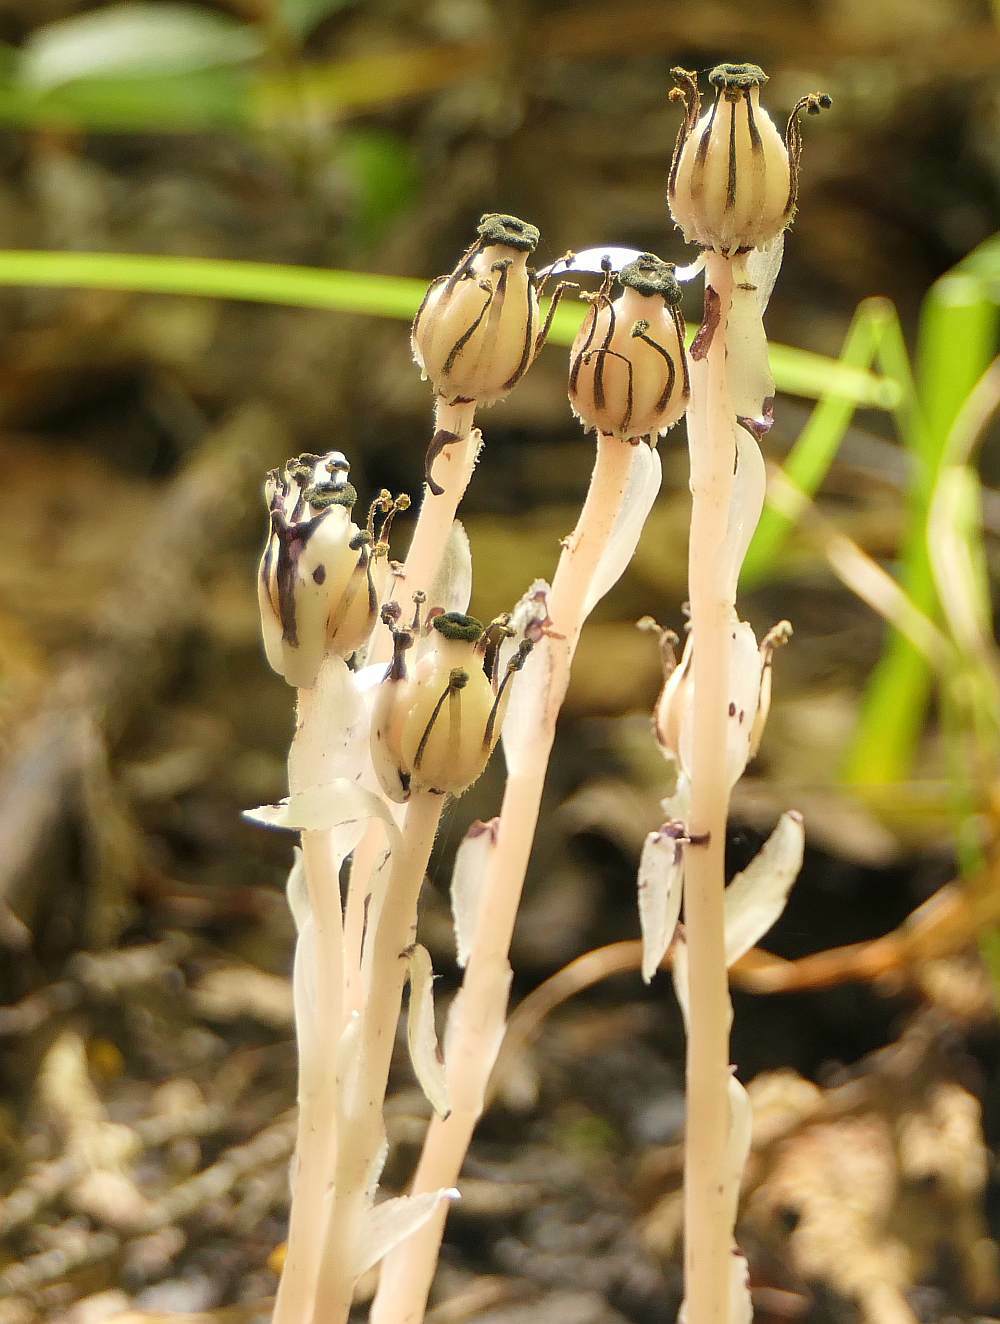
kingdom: Plantae
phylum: Tracheophyta
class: Magnoliopsida
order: Ericales
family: Ericaceae
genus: Monotropa
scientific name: Monotropa uniflora
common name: Convulsion root
